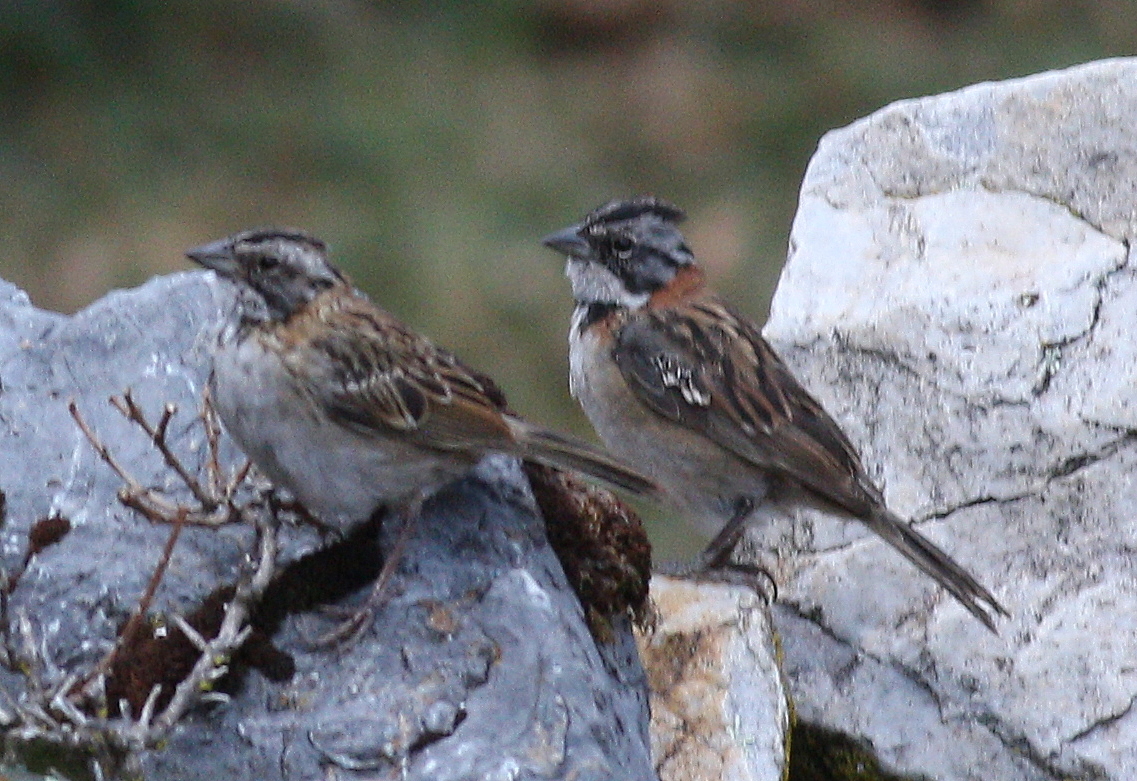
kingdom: Animalia
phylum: Chordata
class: Aves
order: Passeriformes
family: Passerellidae
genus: Zonotrichia
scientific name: Zonotrichia capensis
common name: Rufous-collared sparrow
